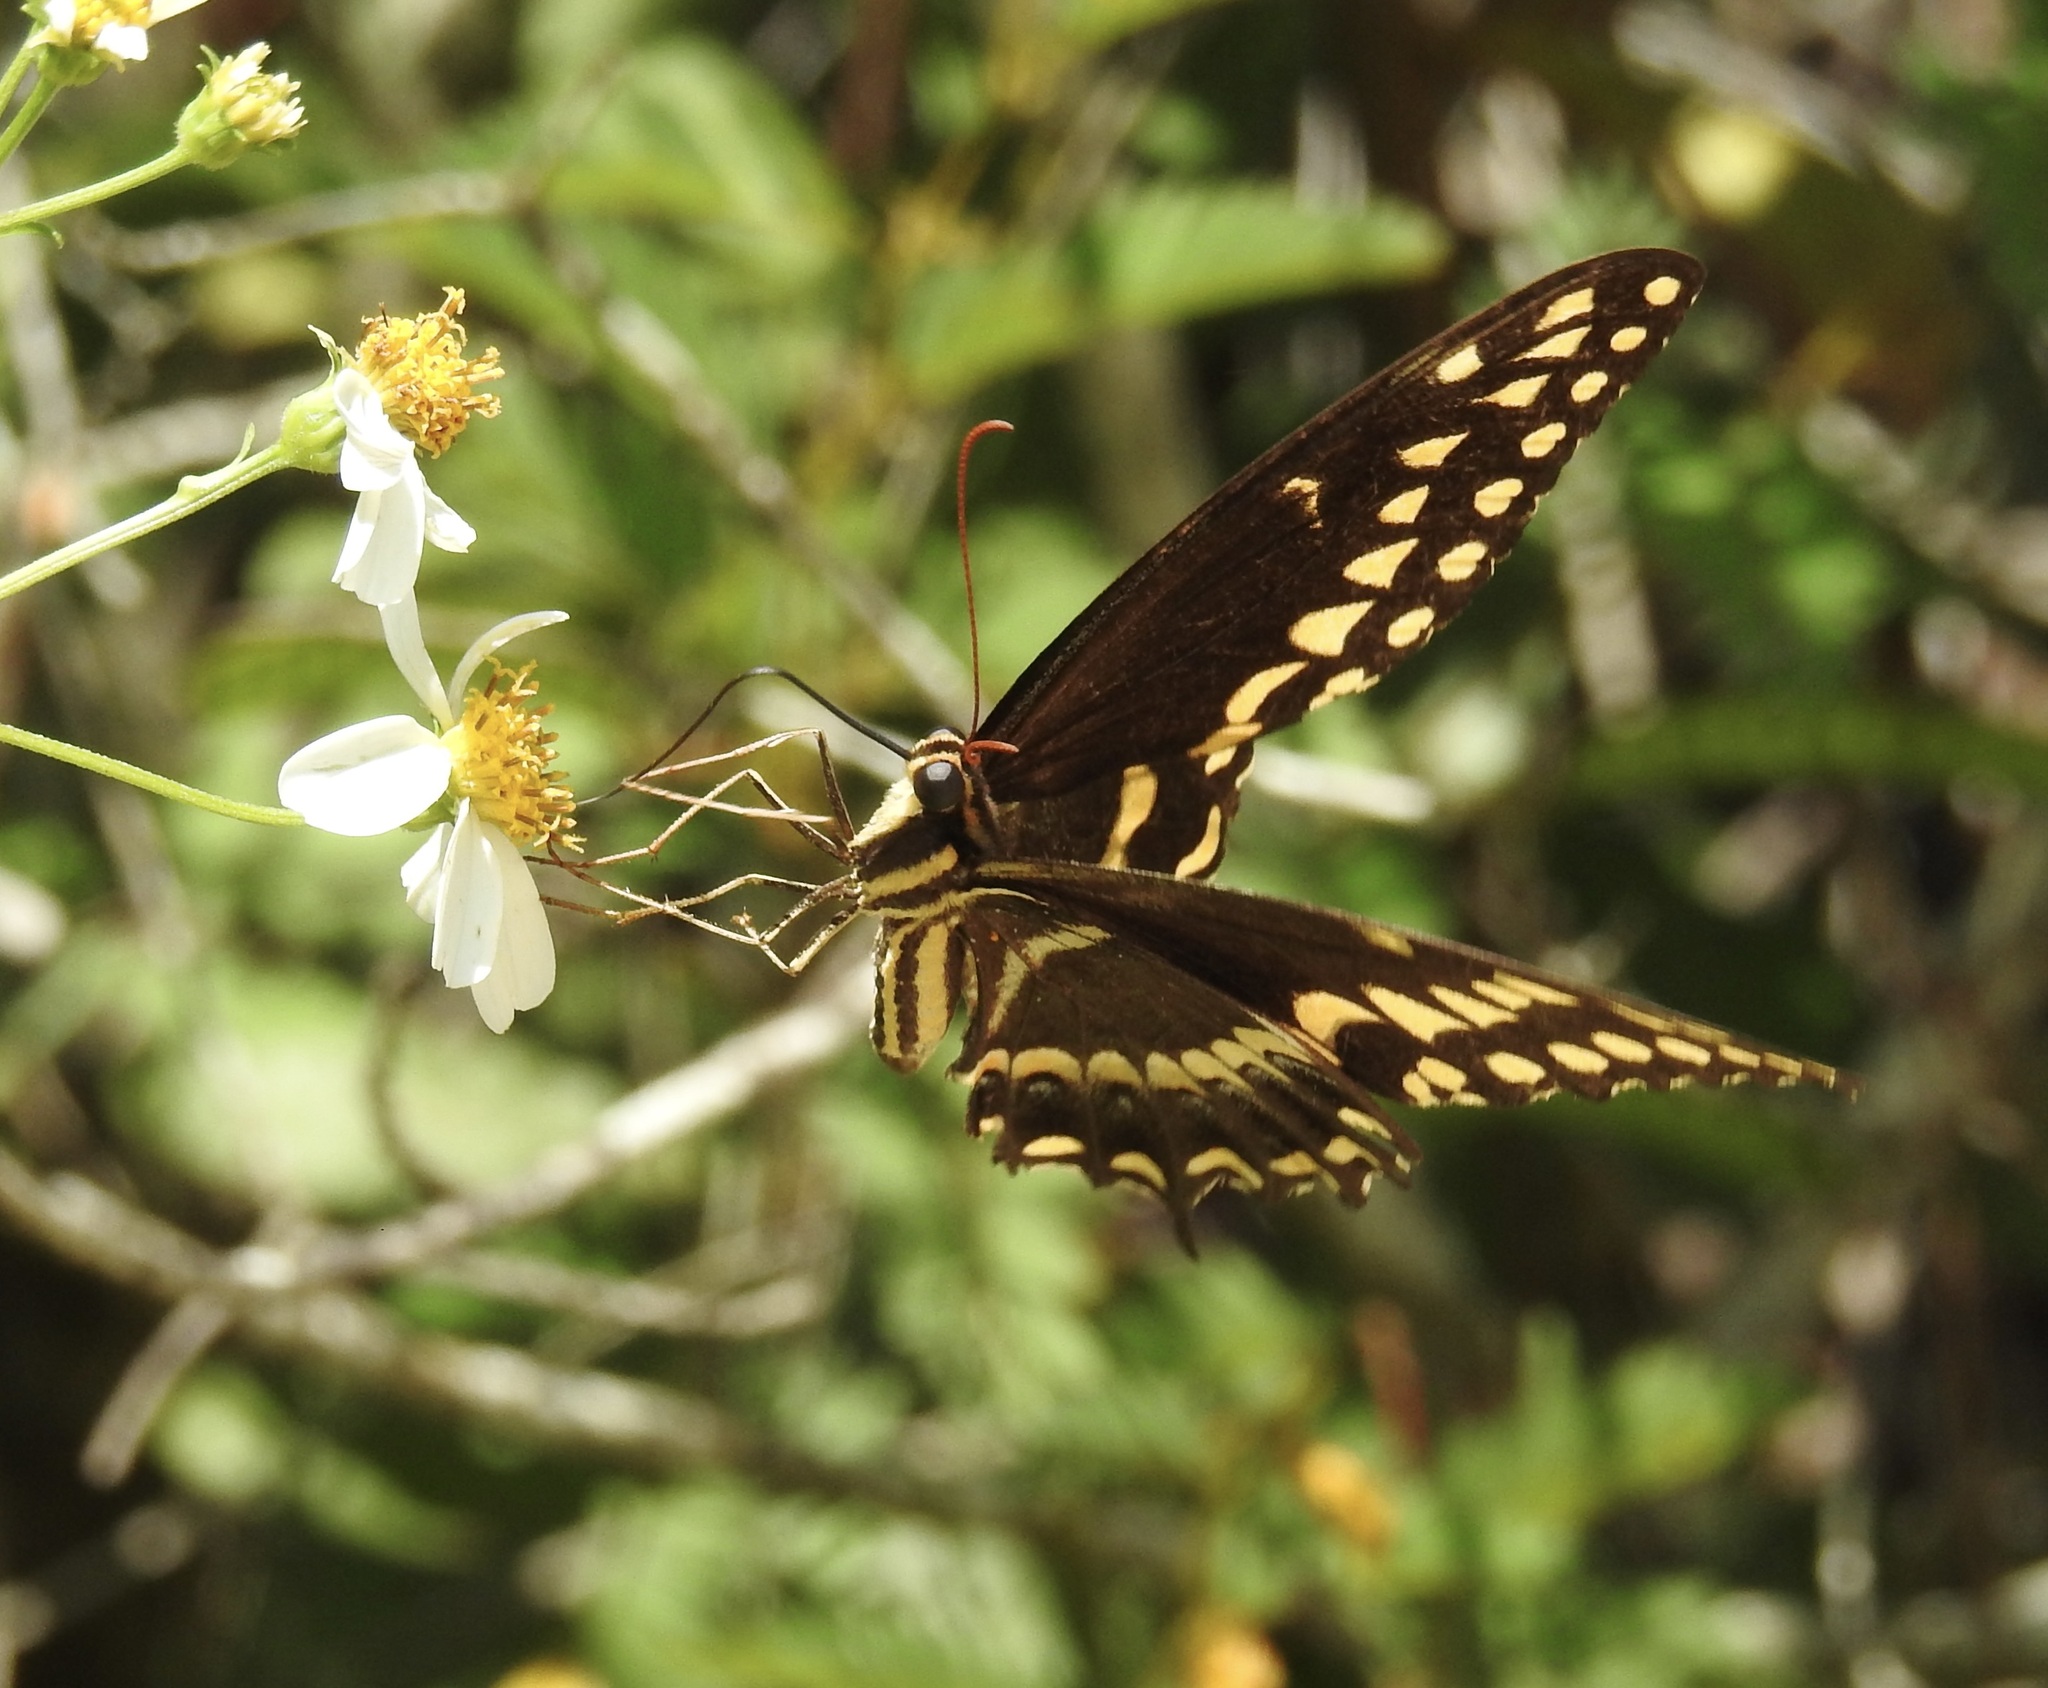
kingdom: Animalia
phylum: Arthropoda
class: Insecta
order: Lepidoptera
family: Papilionidae
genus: Papilio
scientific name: Papilio palamedes
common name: Palamedes swallowtail
